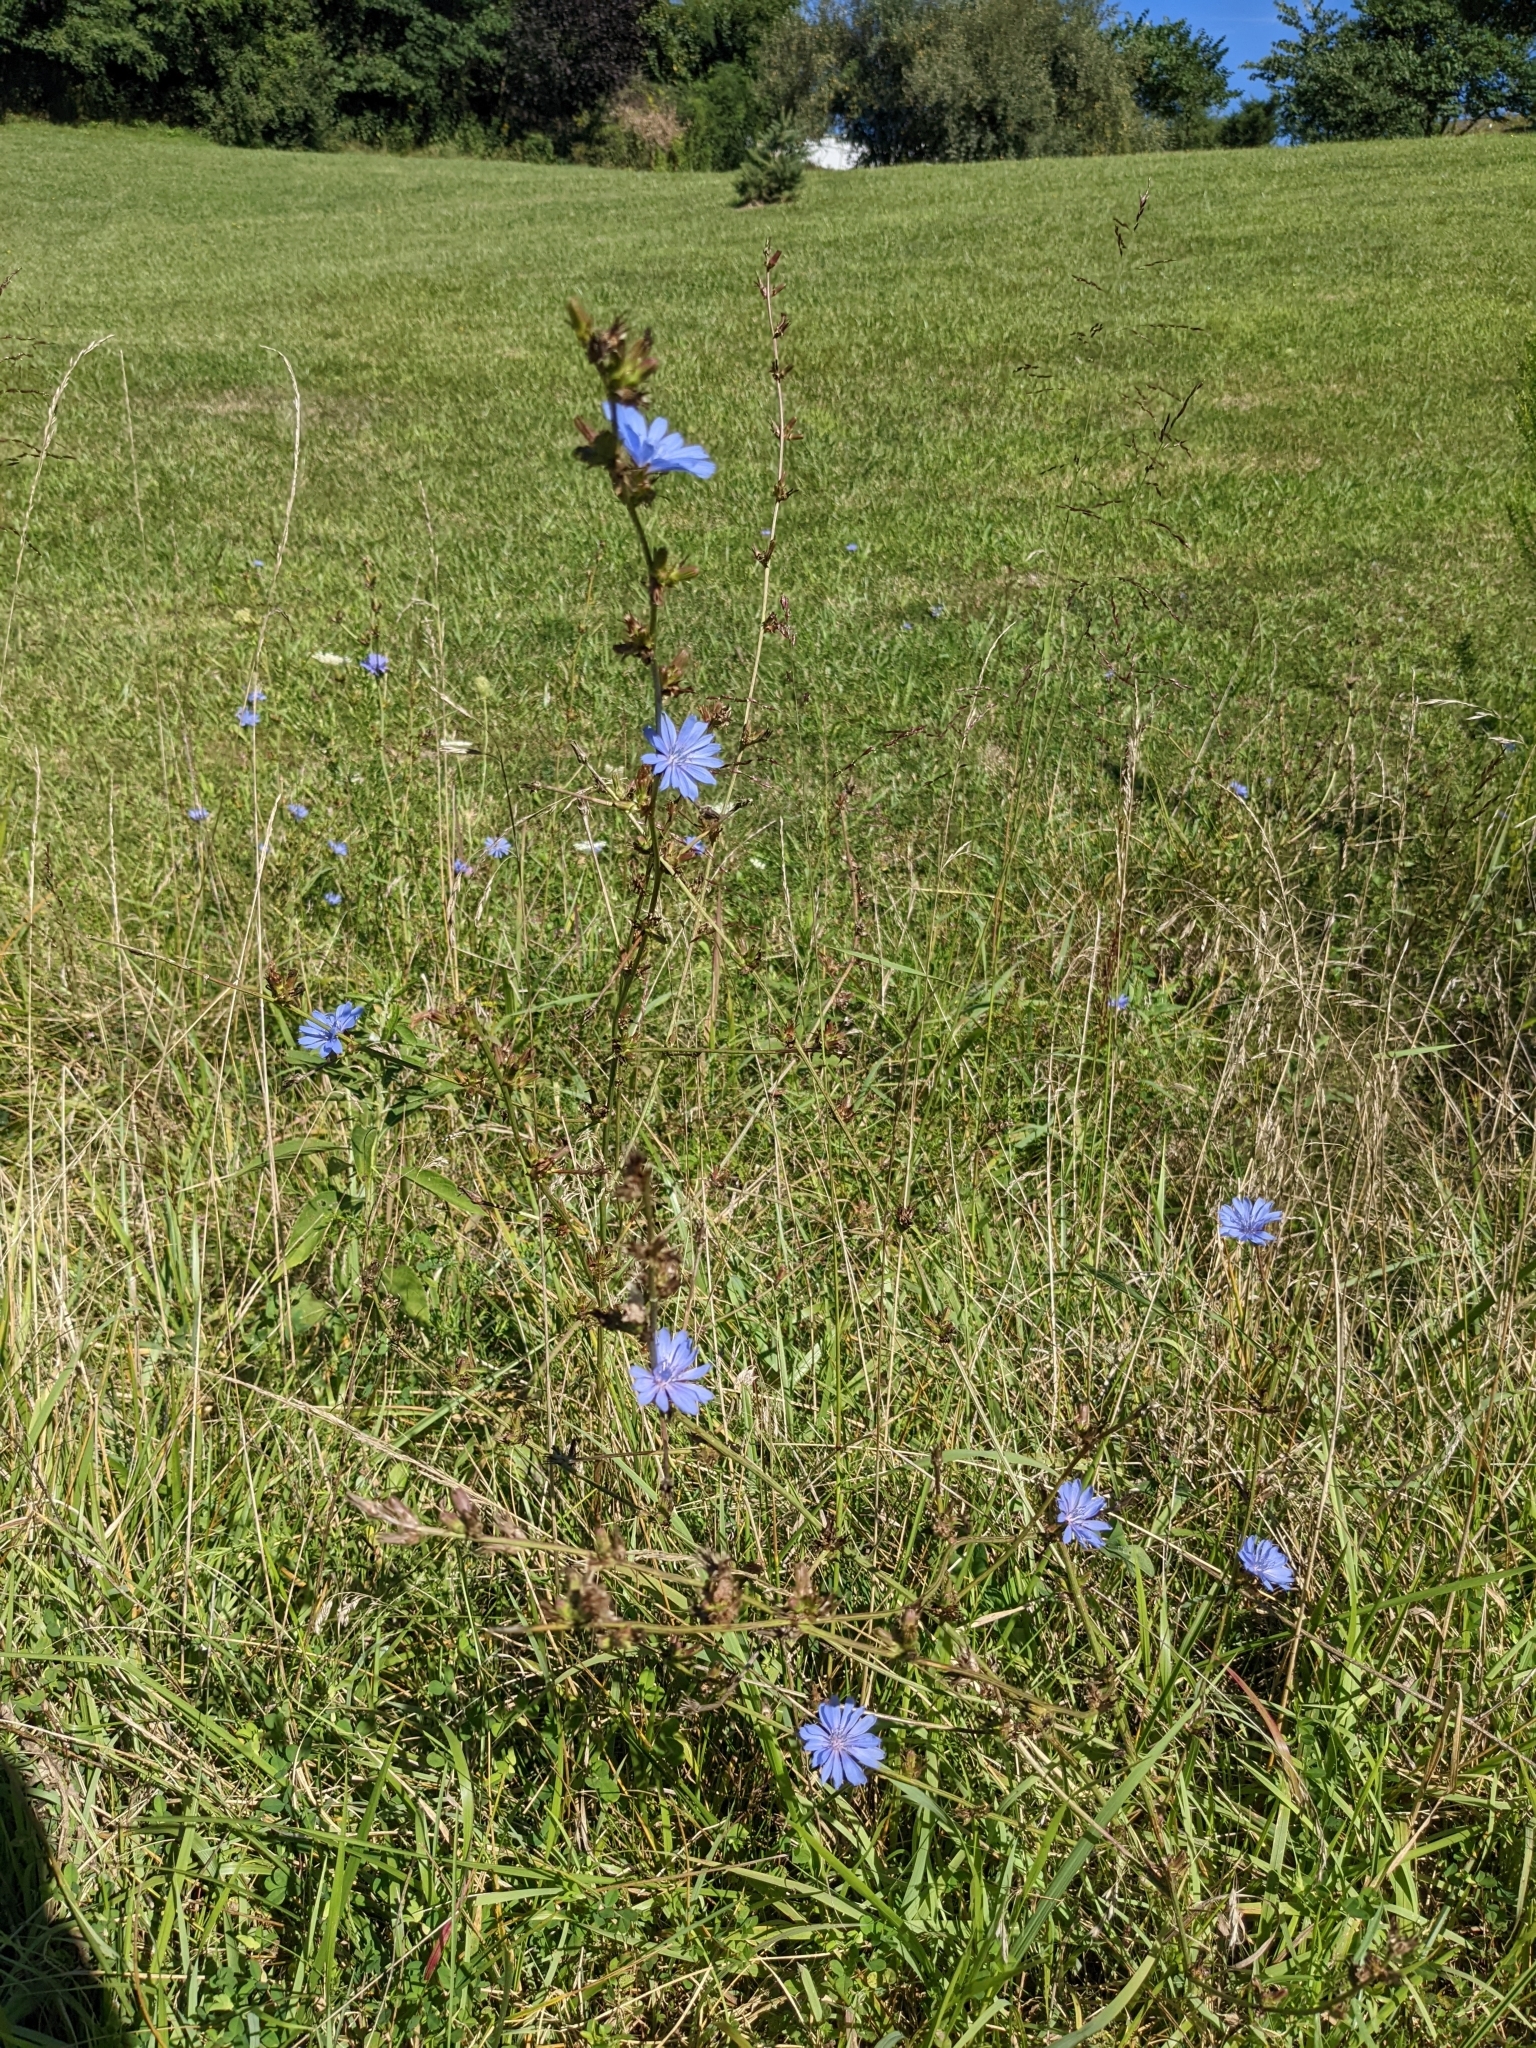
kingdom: Plantae
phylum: Tracheophyta
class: Magnoliopsida
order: Asterales
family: Asteraceae
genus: Cichorium
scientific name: Cichorium intybus
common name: Chicory
